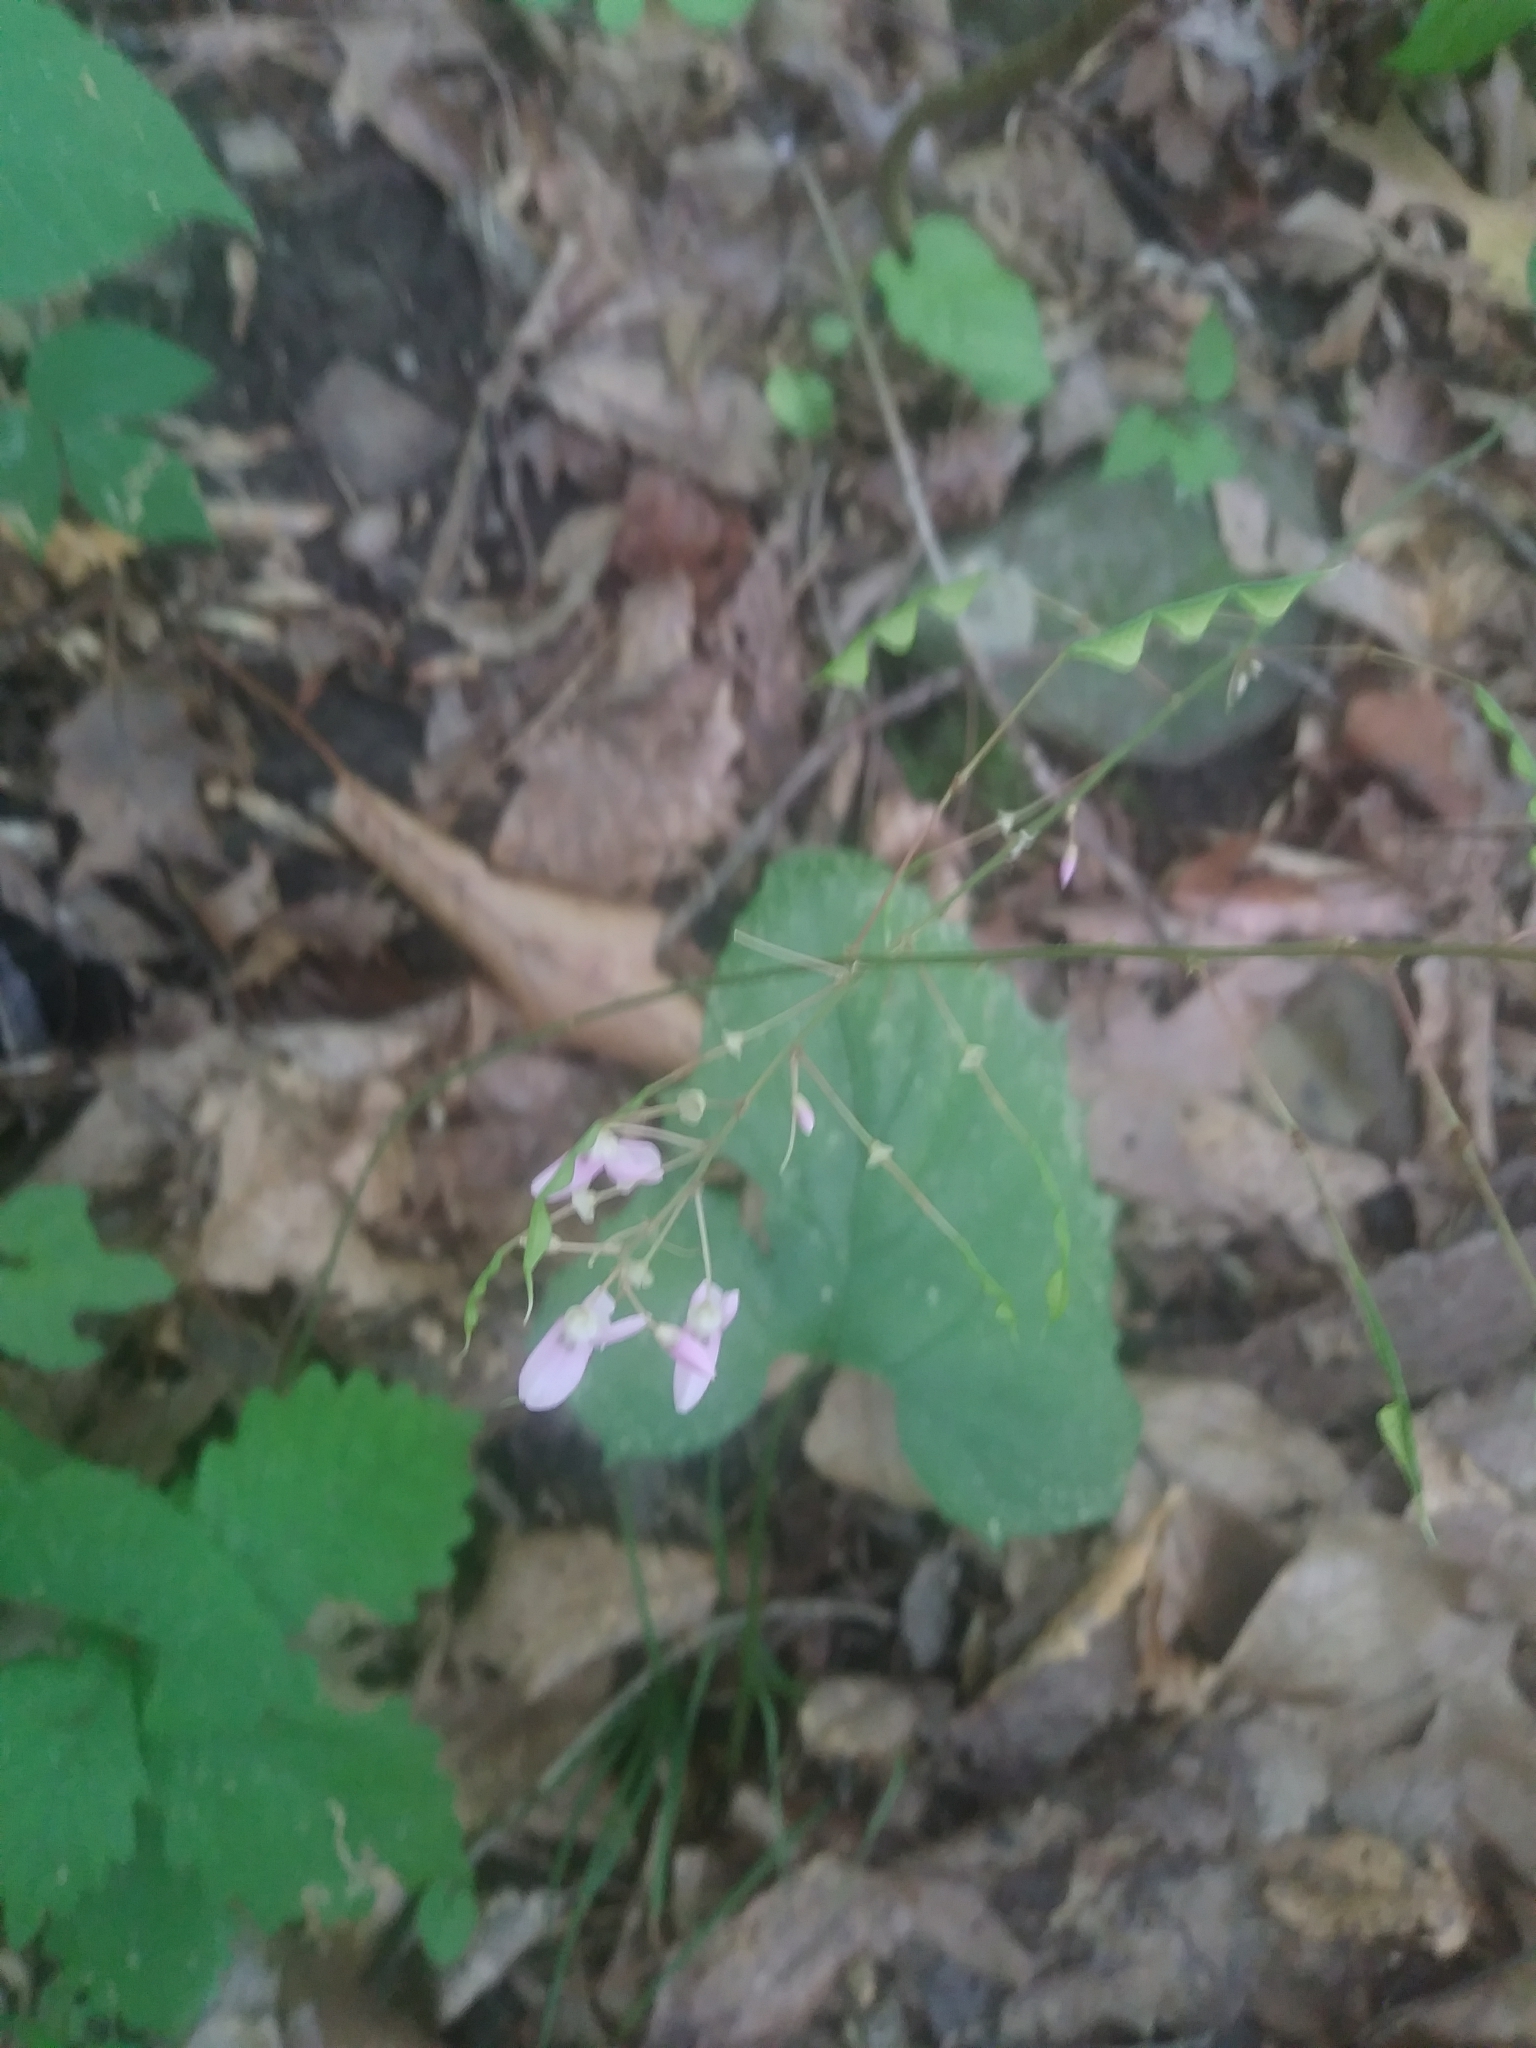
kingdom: Plantae
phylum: Tracheophyta
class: Magnoliopsida
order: Fabales
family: Fabaceae
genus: Hylodesmum
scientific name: Hylodesmum nudiflorum
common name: Bare-stemmed tick-trefoil
